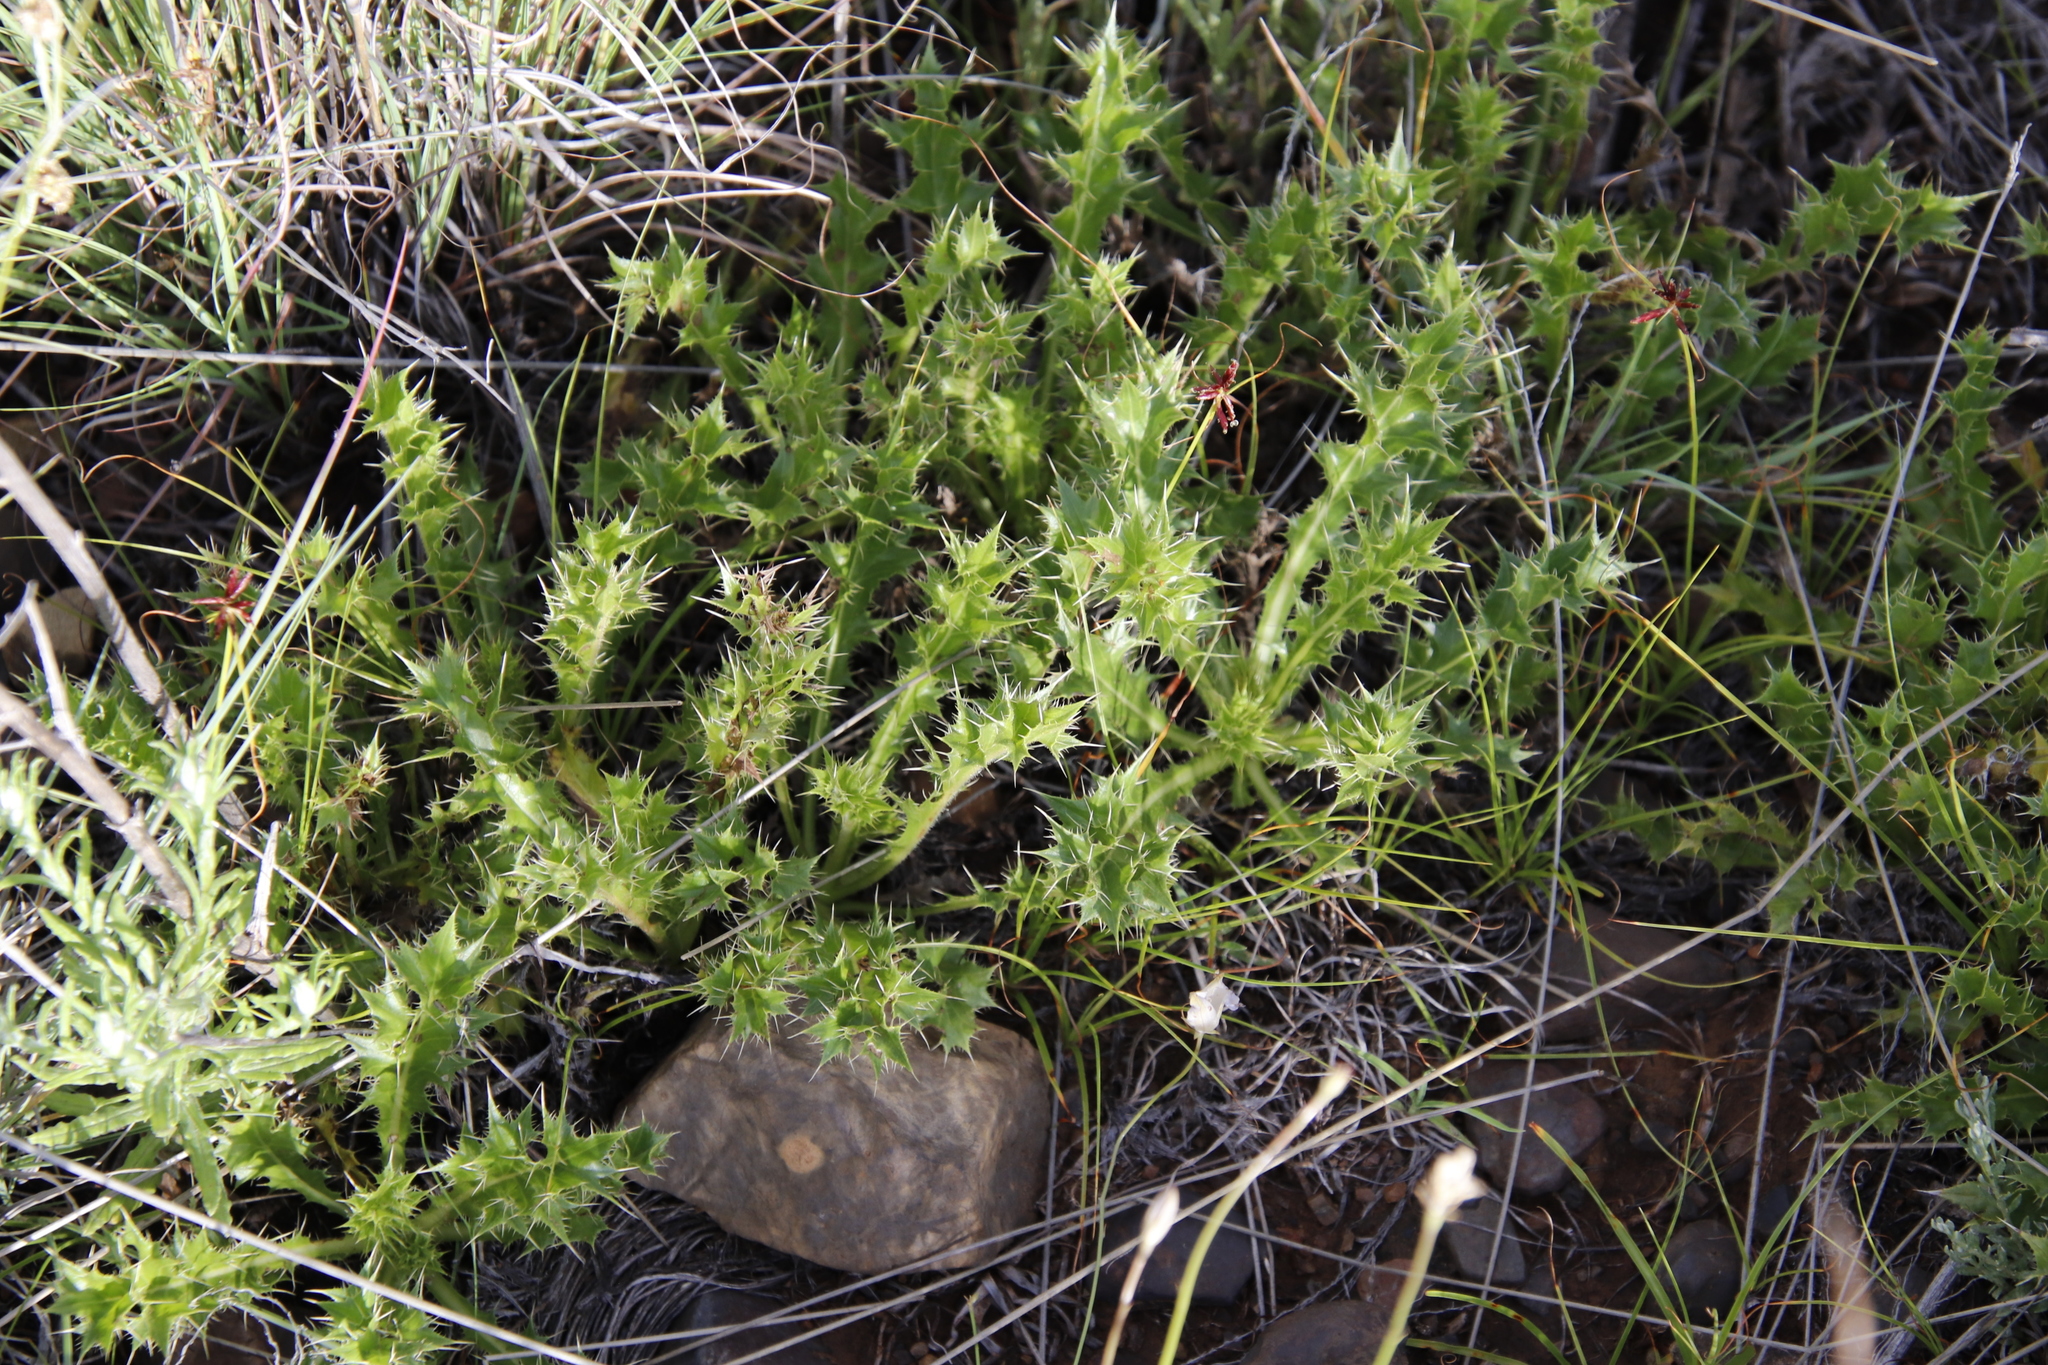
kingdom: Plantae
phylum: Tracheophyta
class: Magnoliopsida
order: Asterales
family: Asteraceae
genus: Berkheya
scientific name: Berkheya carlinifolia
